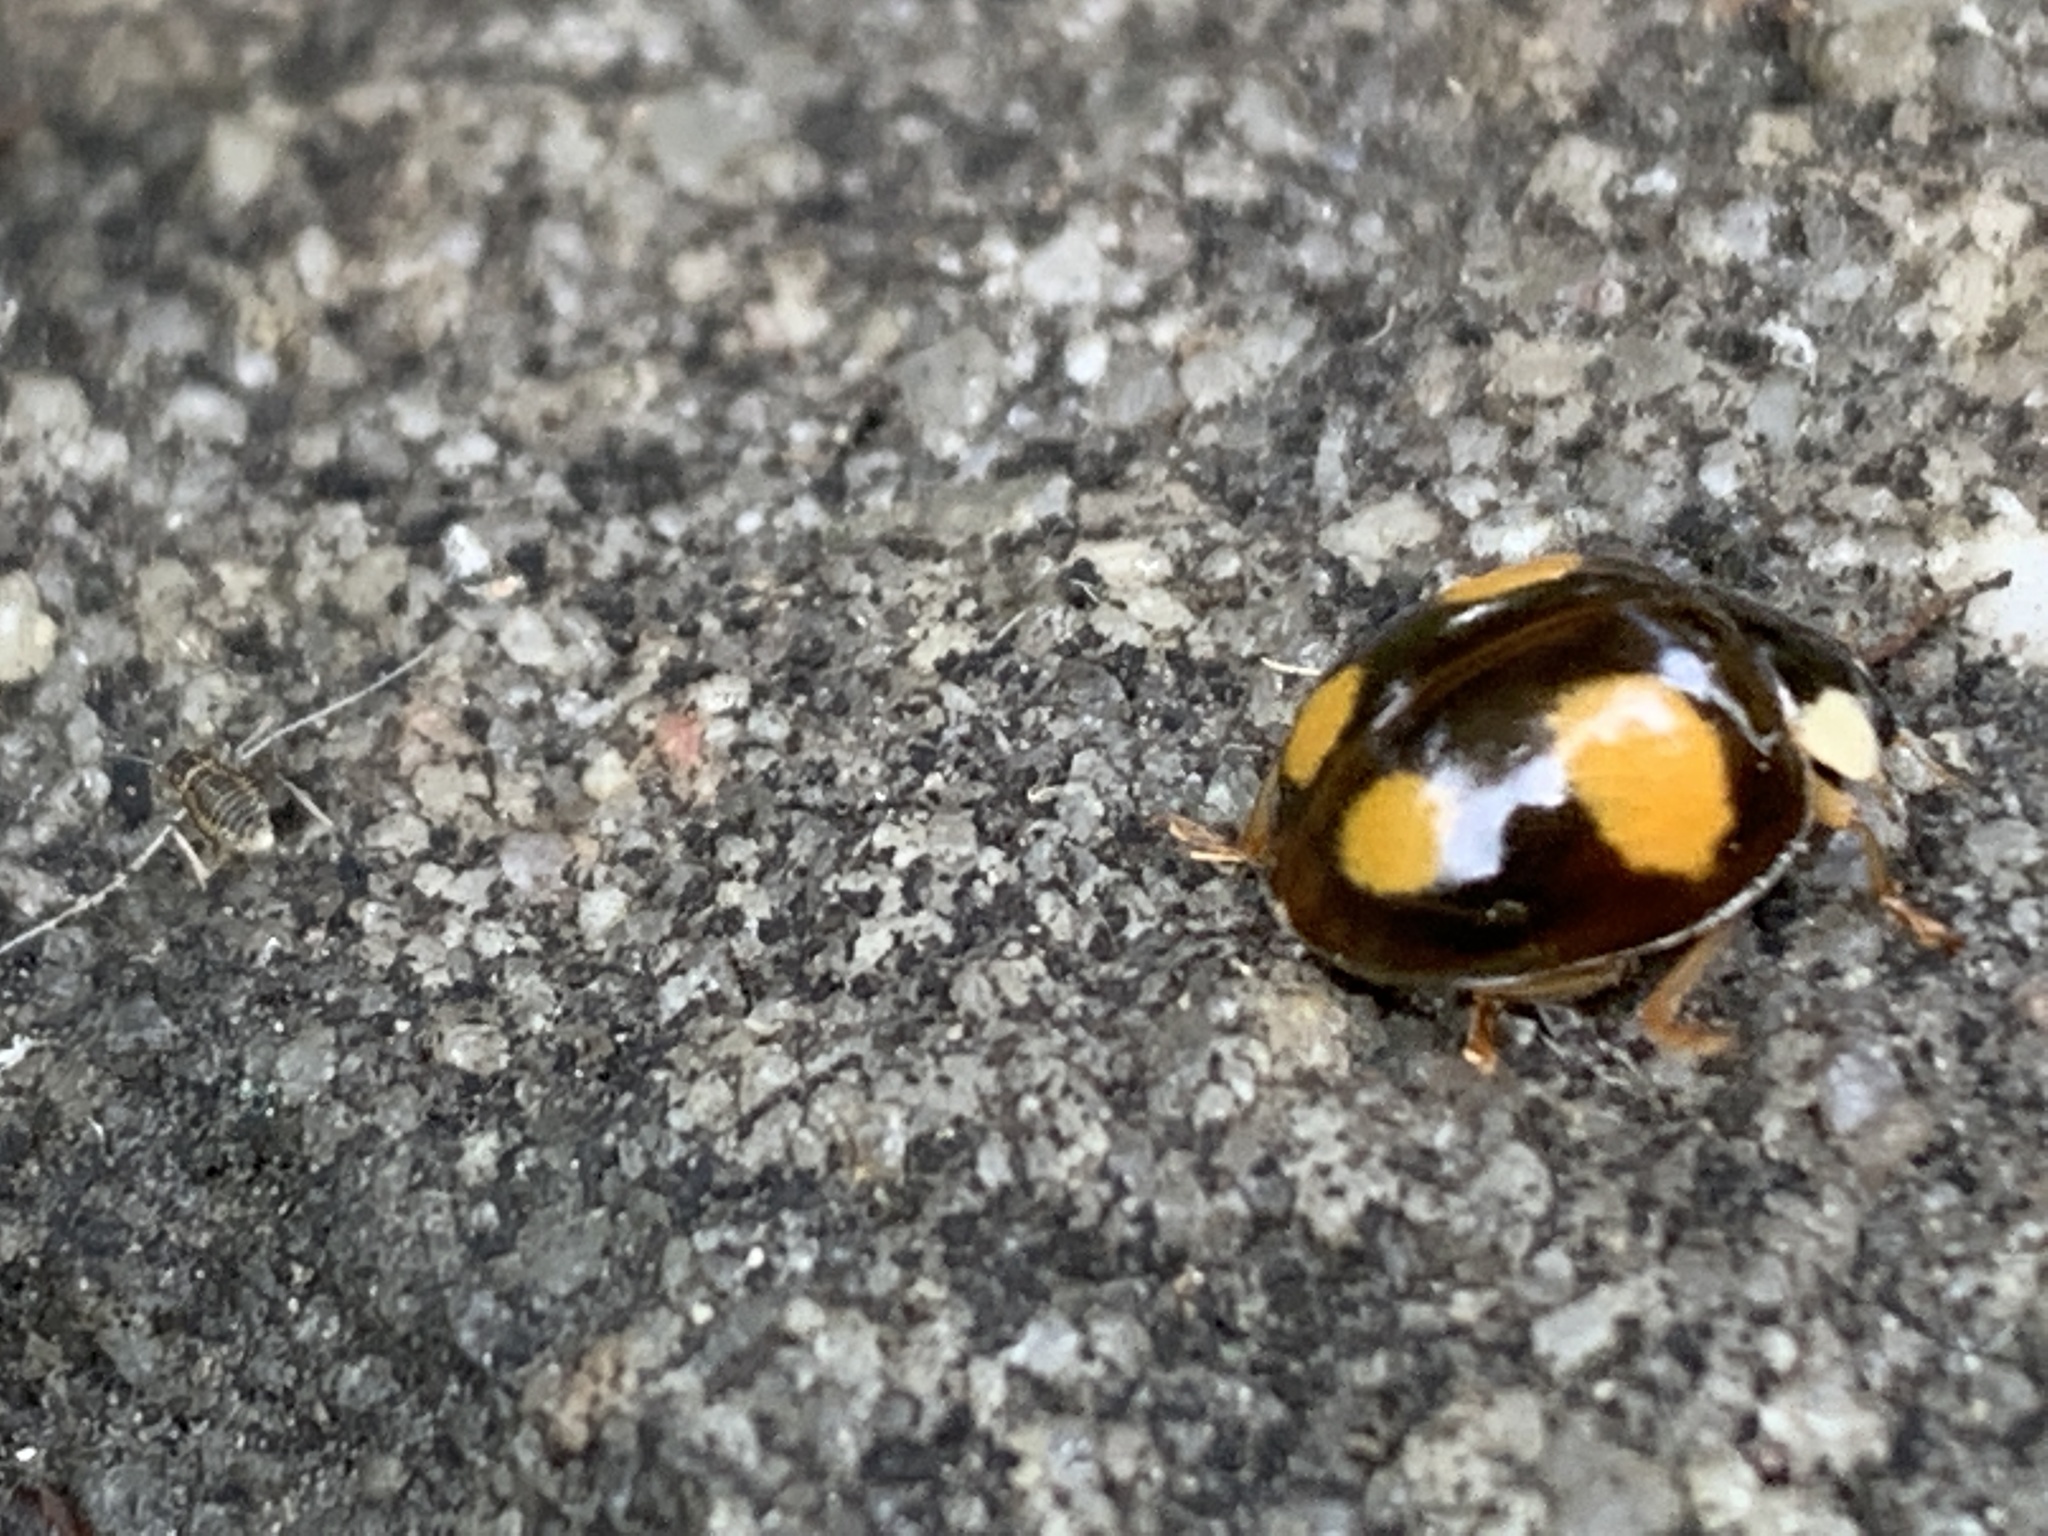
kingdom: Animalia
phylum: Arthropoda
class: Insecta
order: Coleoptera
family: Coccinellidae
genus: Harmonia
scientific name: Harmonia axyridis
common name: Harlequin ladybird
